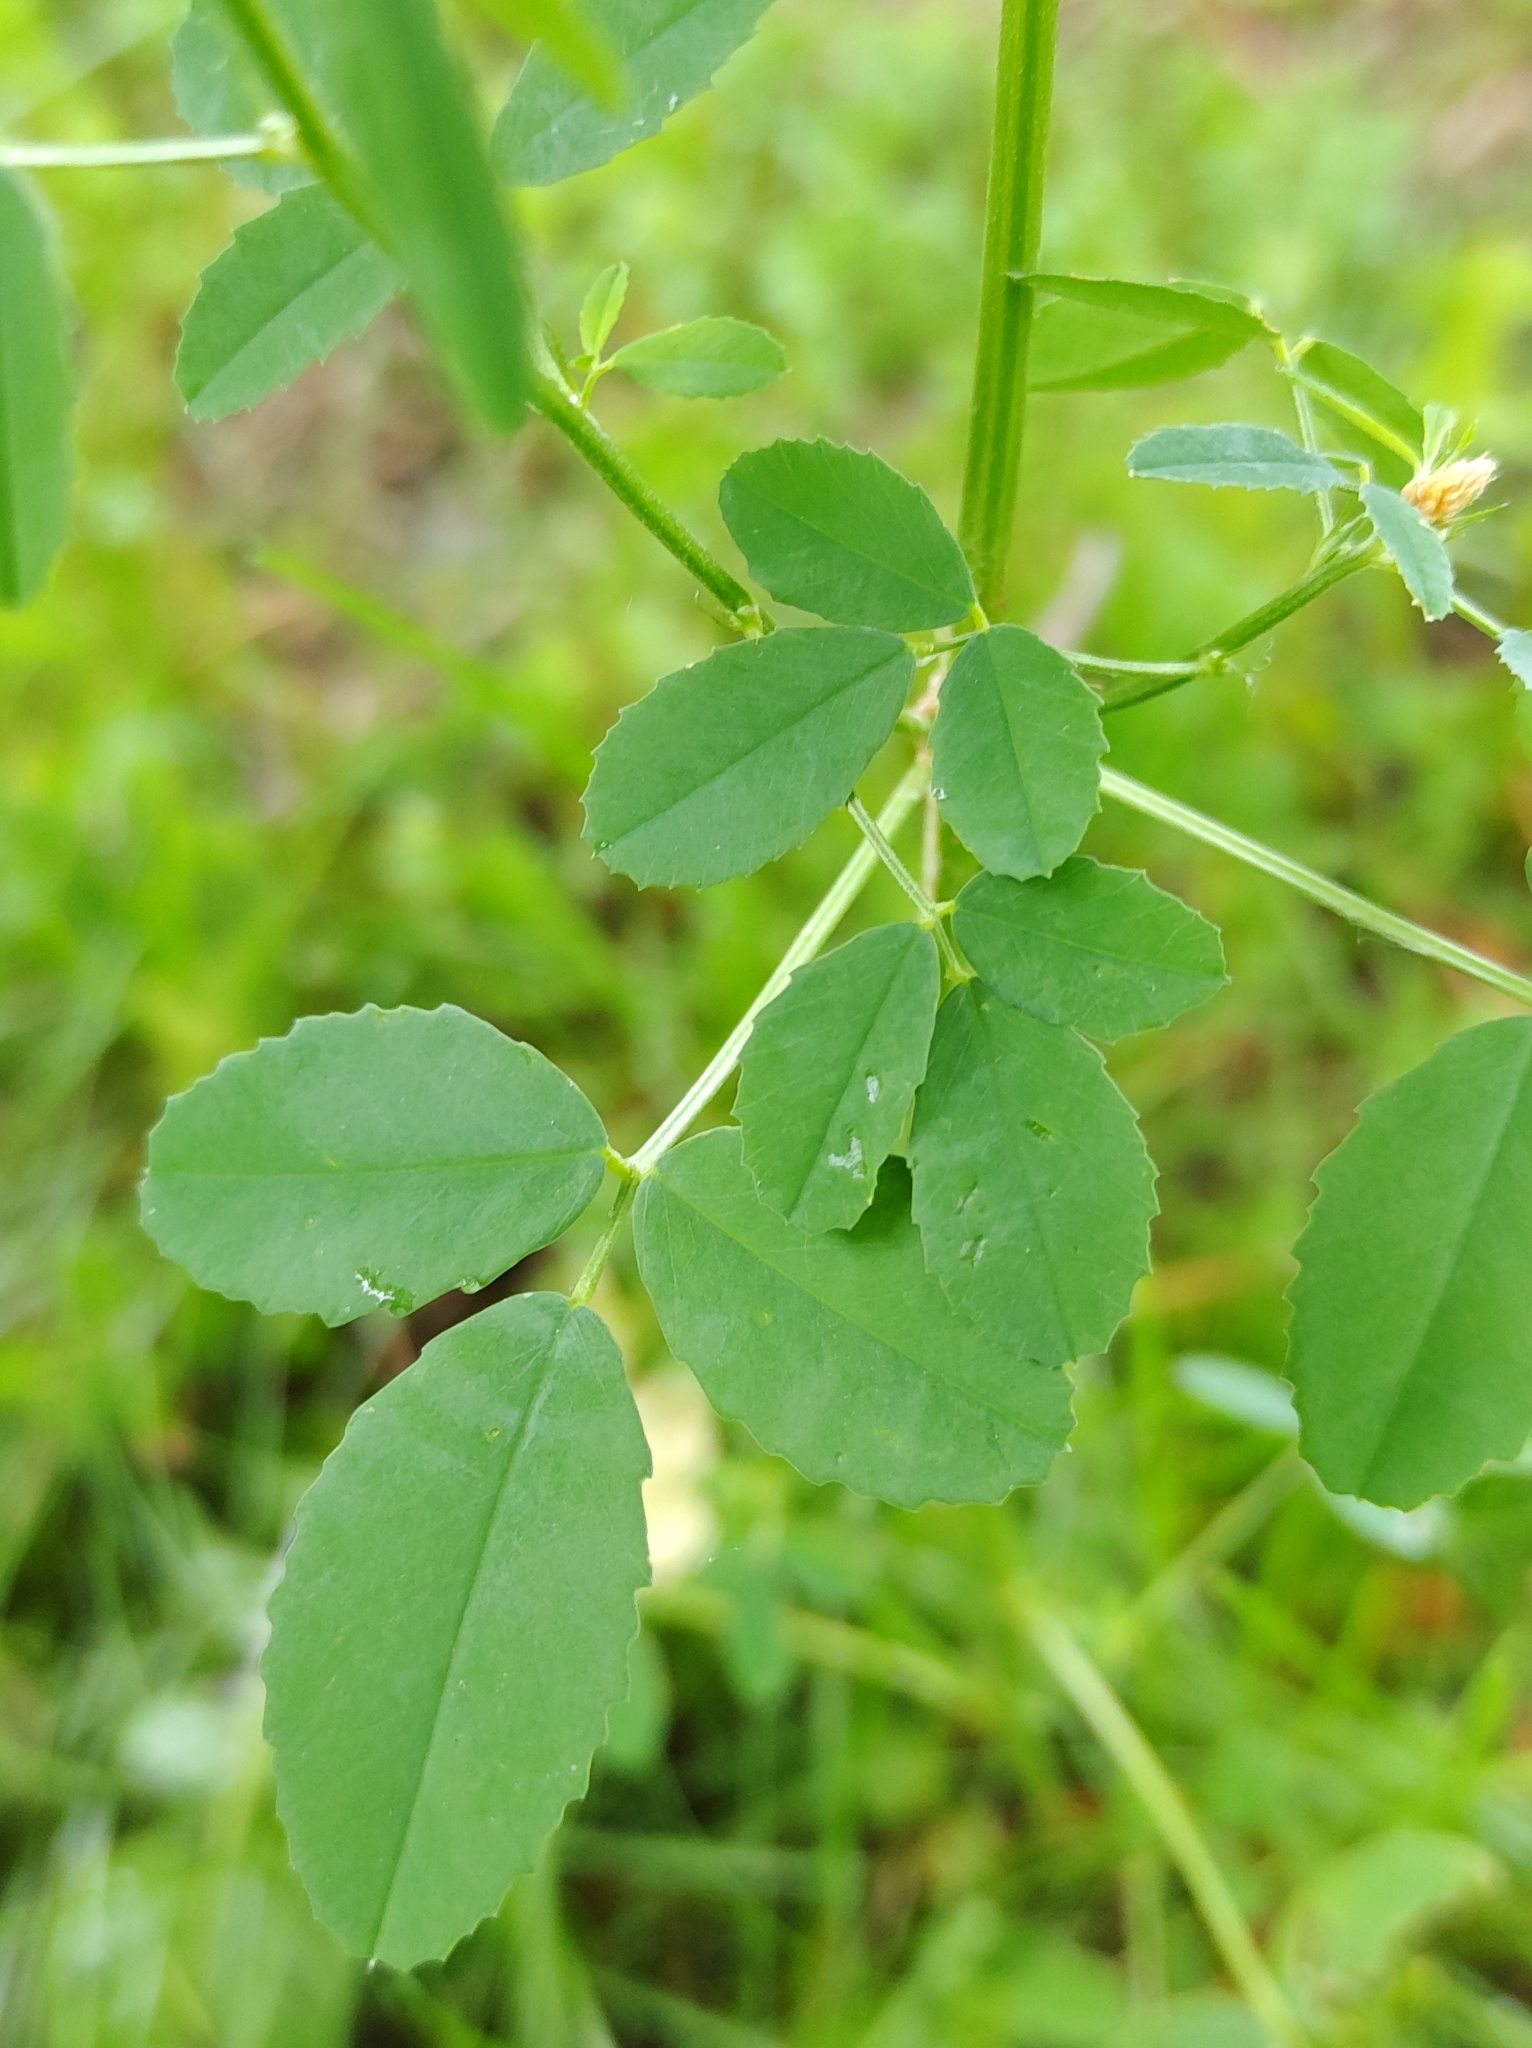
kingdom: Plantae
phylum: Tracheophyta
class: Magnoliopsida
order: Fabales
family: Fabaceae
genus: Melilotus
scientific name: Melilotus officinalis
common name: Sweetclover
